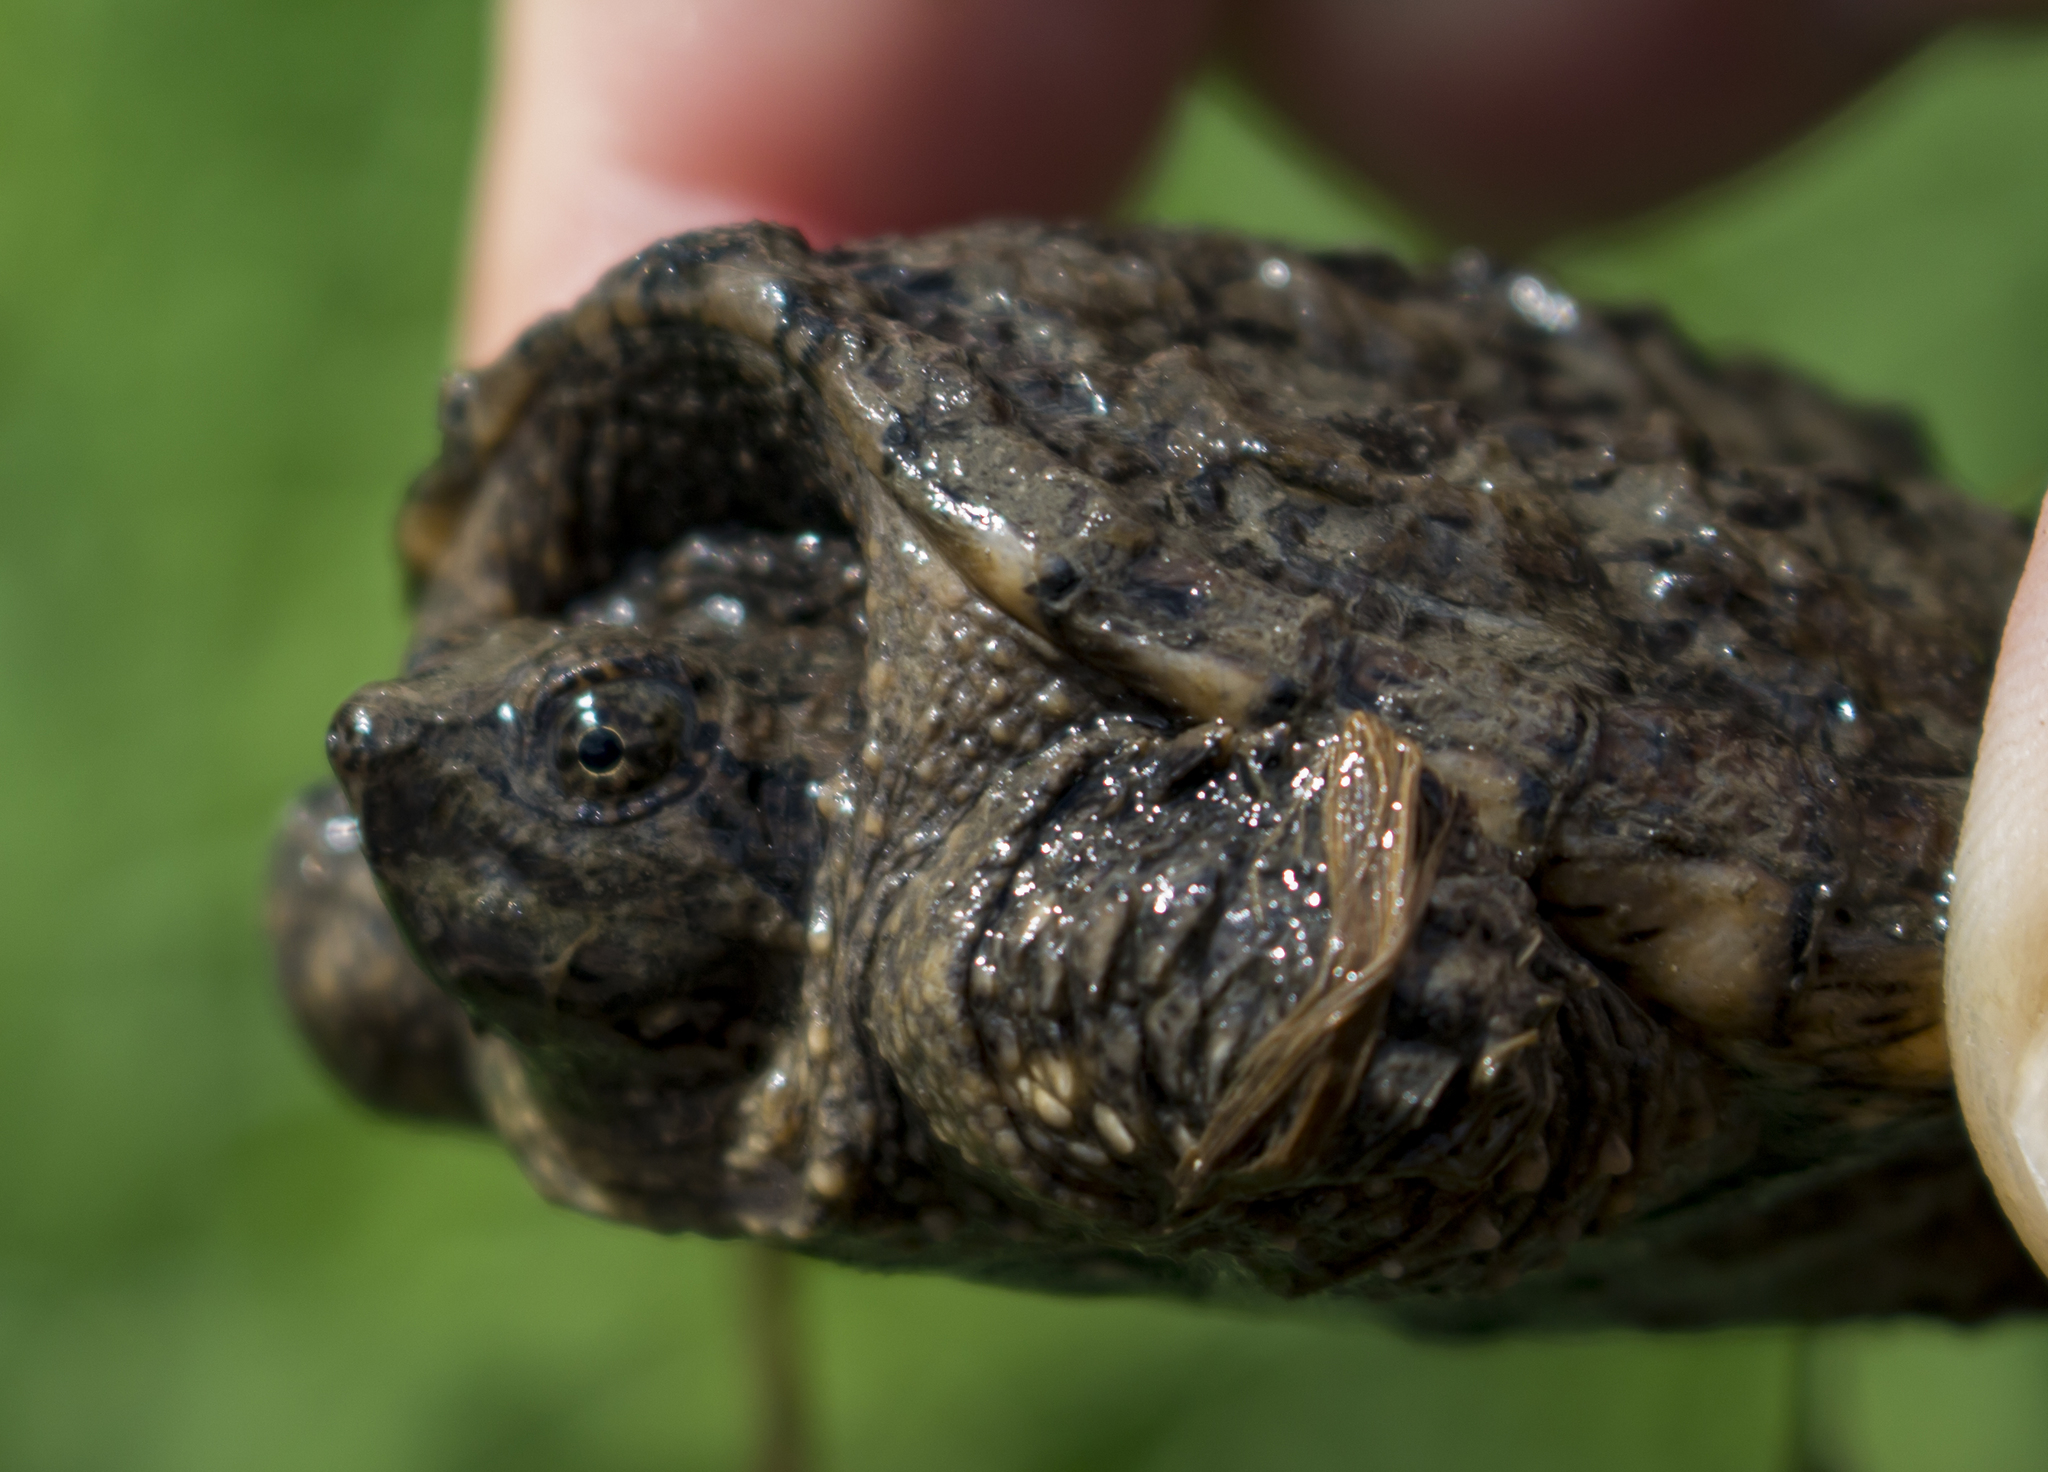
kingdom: Animalia
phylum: Chordata
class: Testudines
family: Chelydridae
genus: Chelydra
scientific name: Chelydra serpentina
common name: Common snapping turtle
